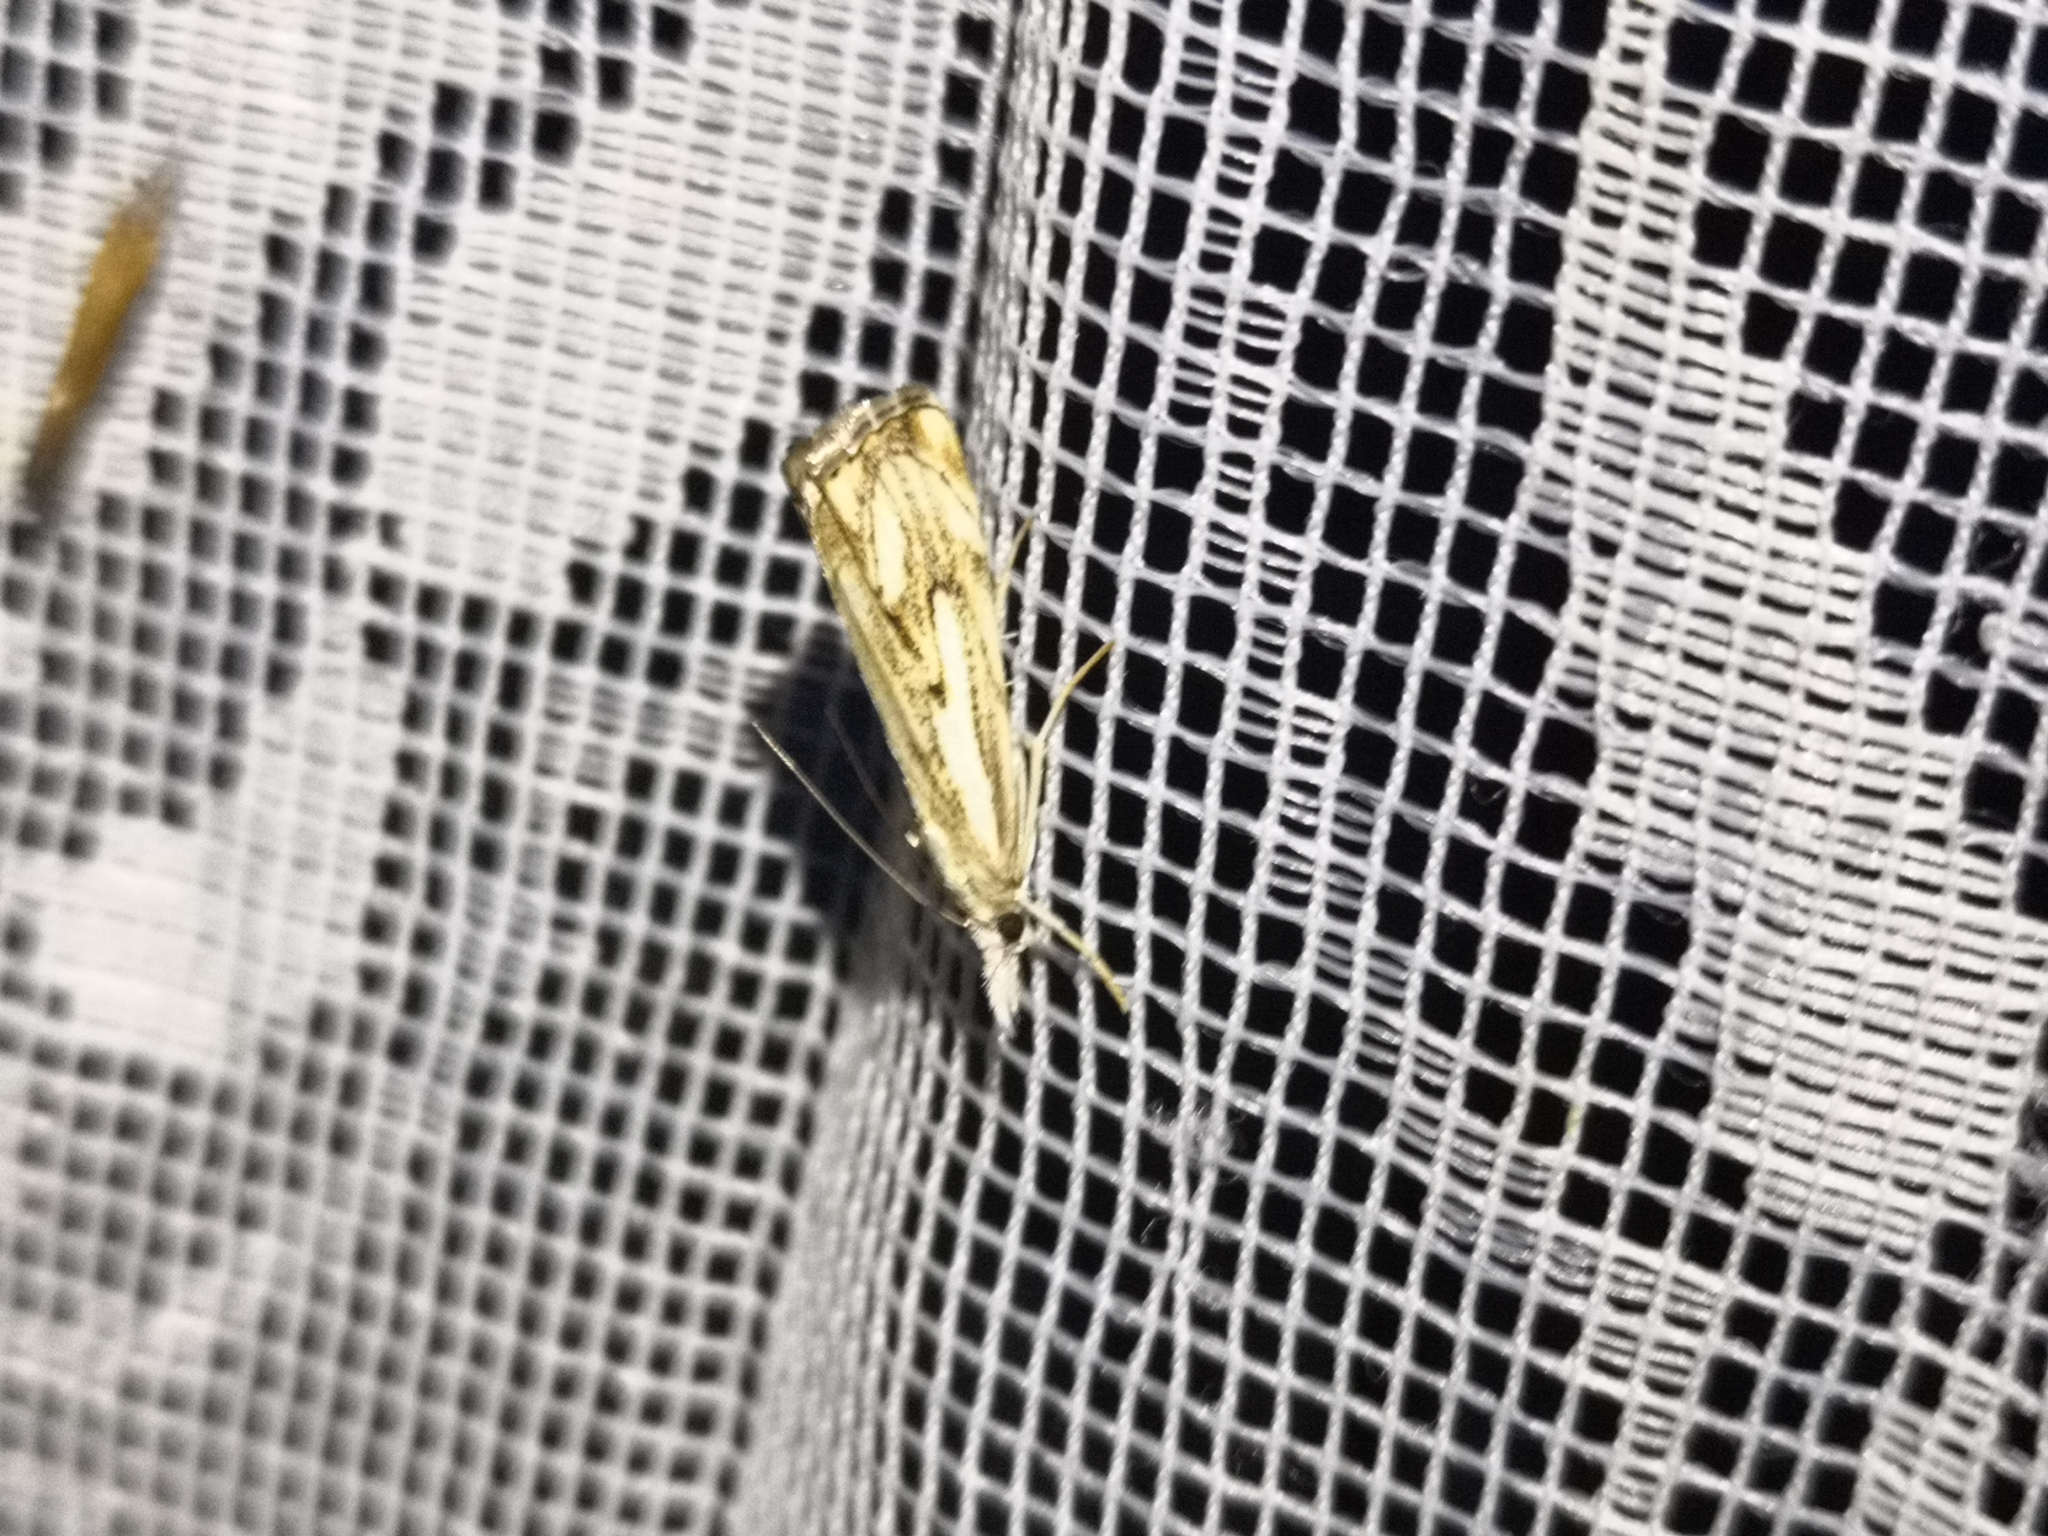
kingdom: Animalia
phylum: Arthropoda
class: Insecta
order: Lepidoptera
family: Crambidae
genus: Catoptria
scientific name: Catoptria falsella
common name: Chequered grass-veneer
